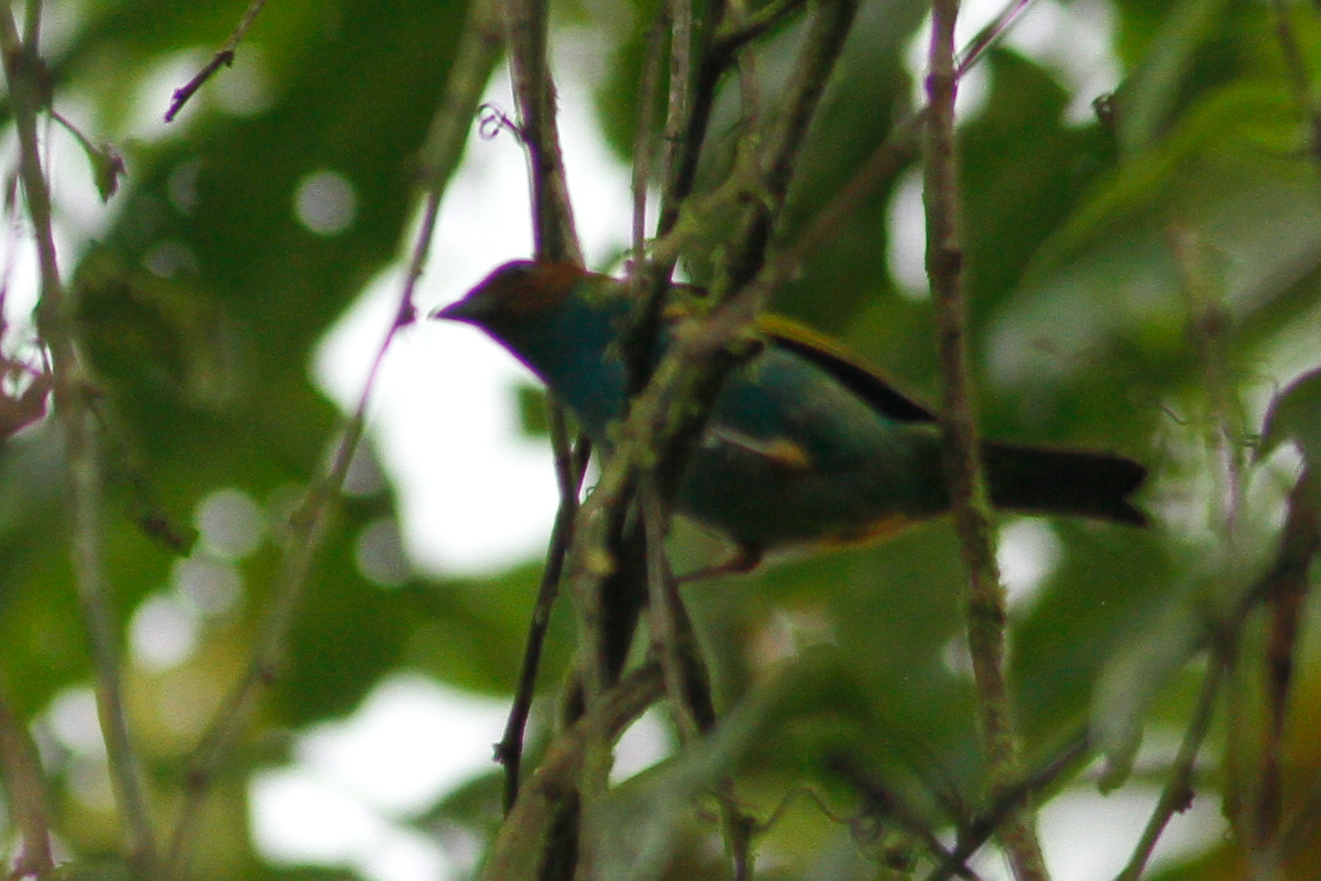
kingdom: Animalia
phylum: Chordata
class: Aves
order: Passeriformes
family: Thraupidae
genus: Tangara
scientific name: Tangara gyrola
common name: Bay-headed tanager
